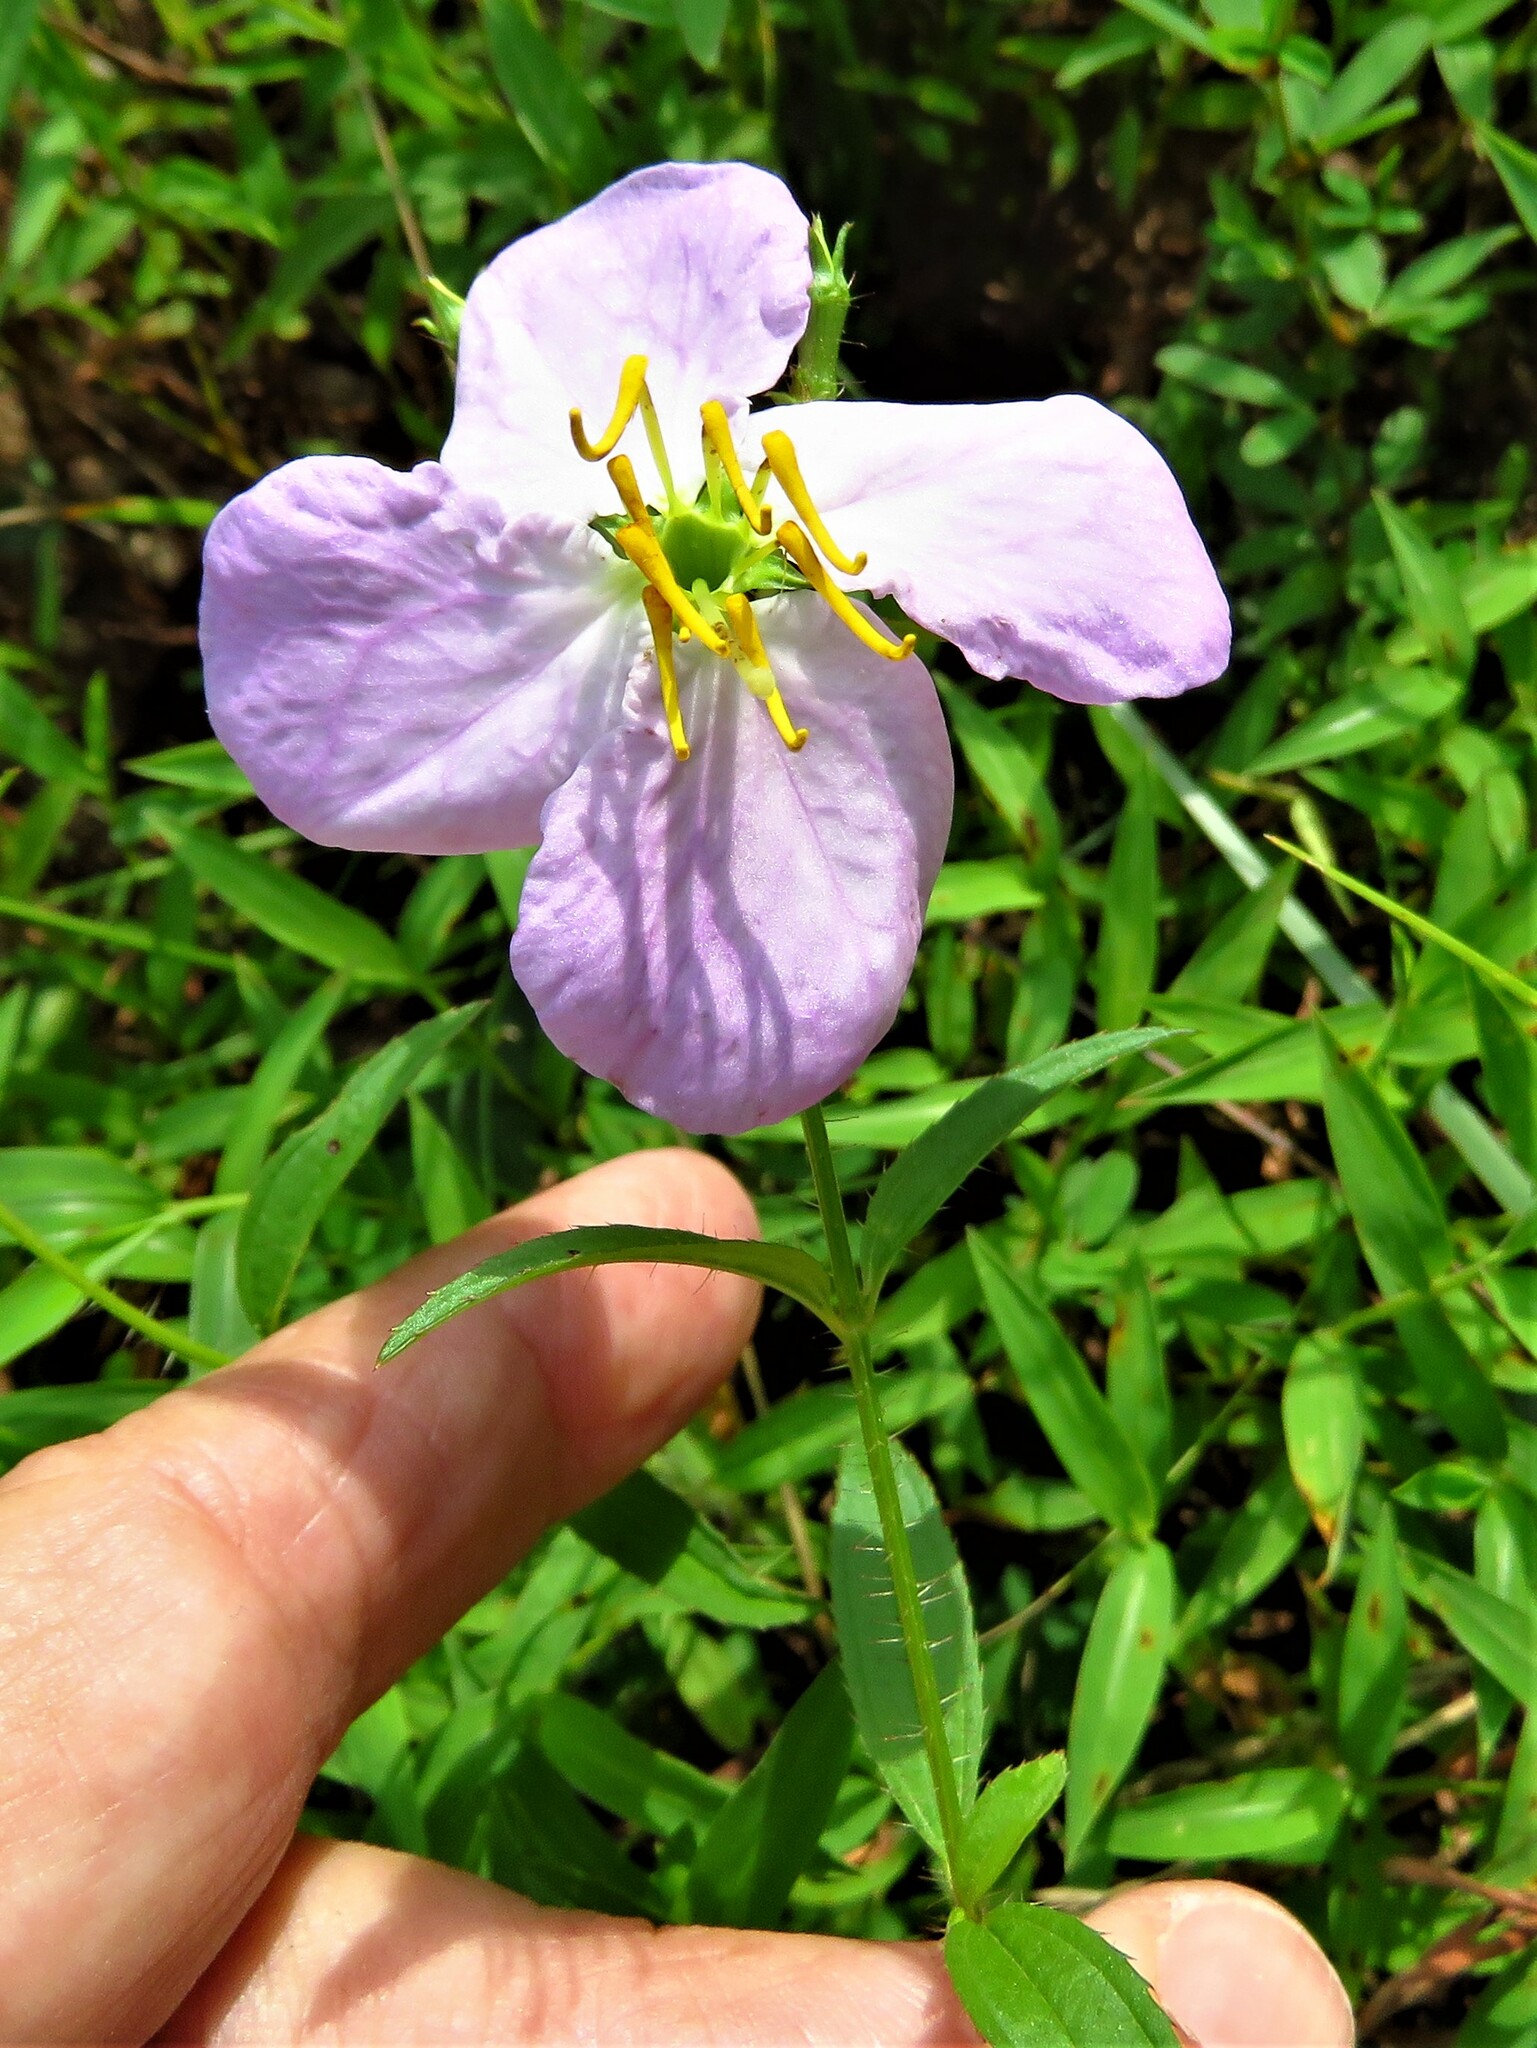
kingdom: Plantae
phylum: Tracheophyta
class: Magnoliopsida
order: Myrtales
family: Melastomataceae
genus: Rhexia
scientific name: Rhexia mariana
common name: Dull meadow-pitcher
